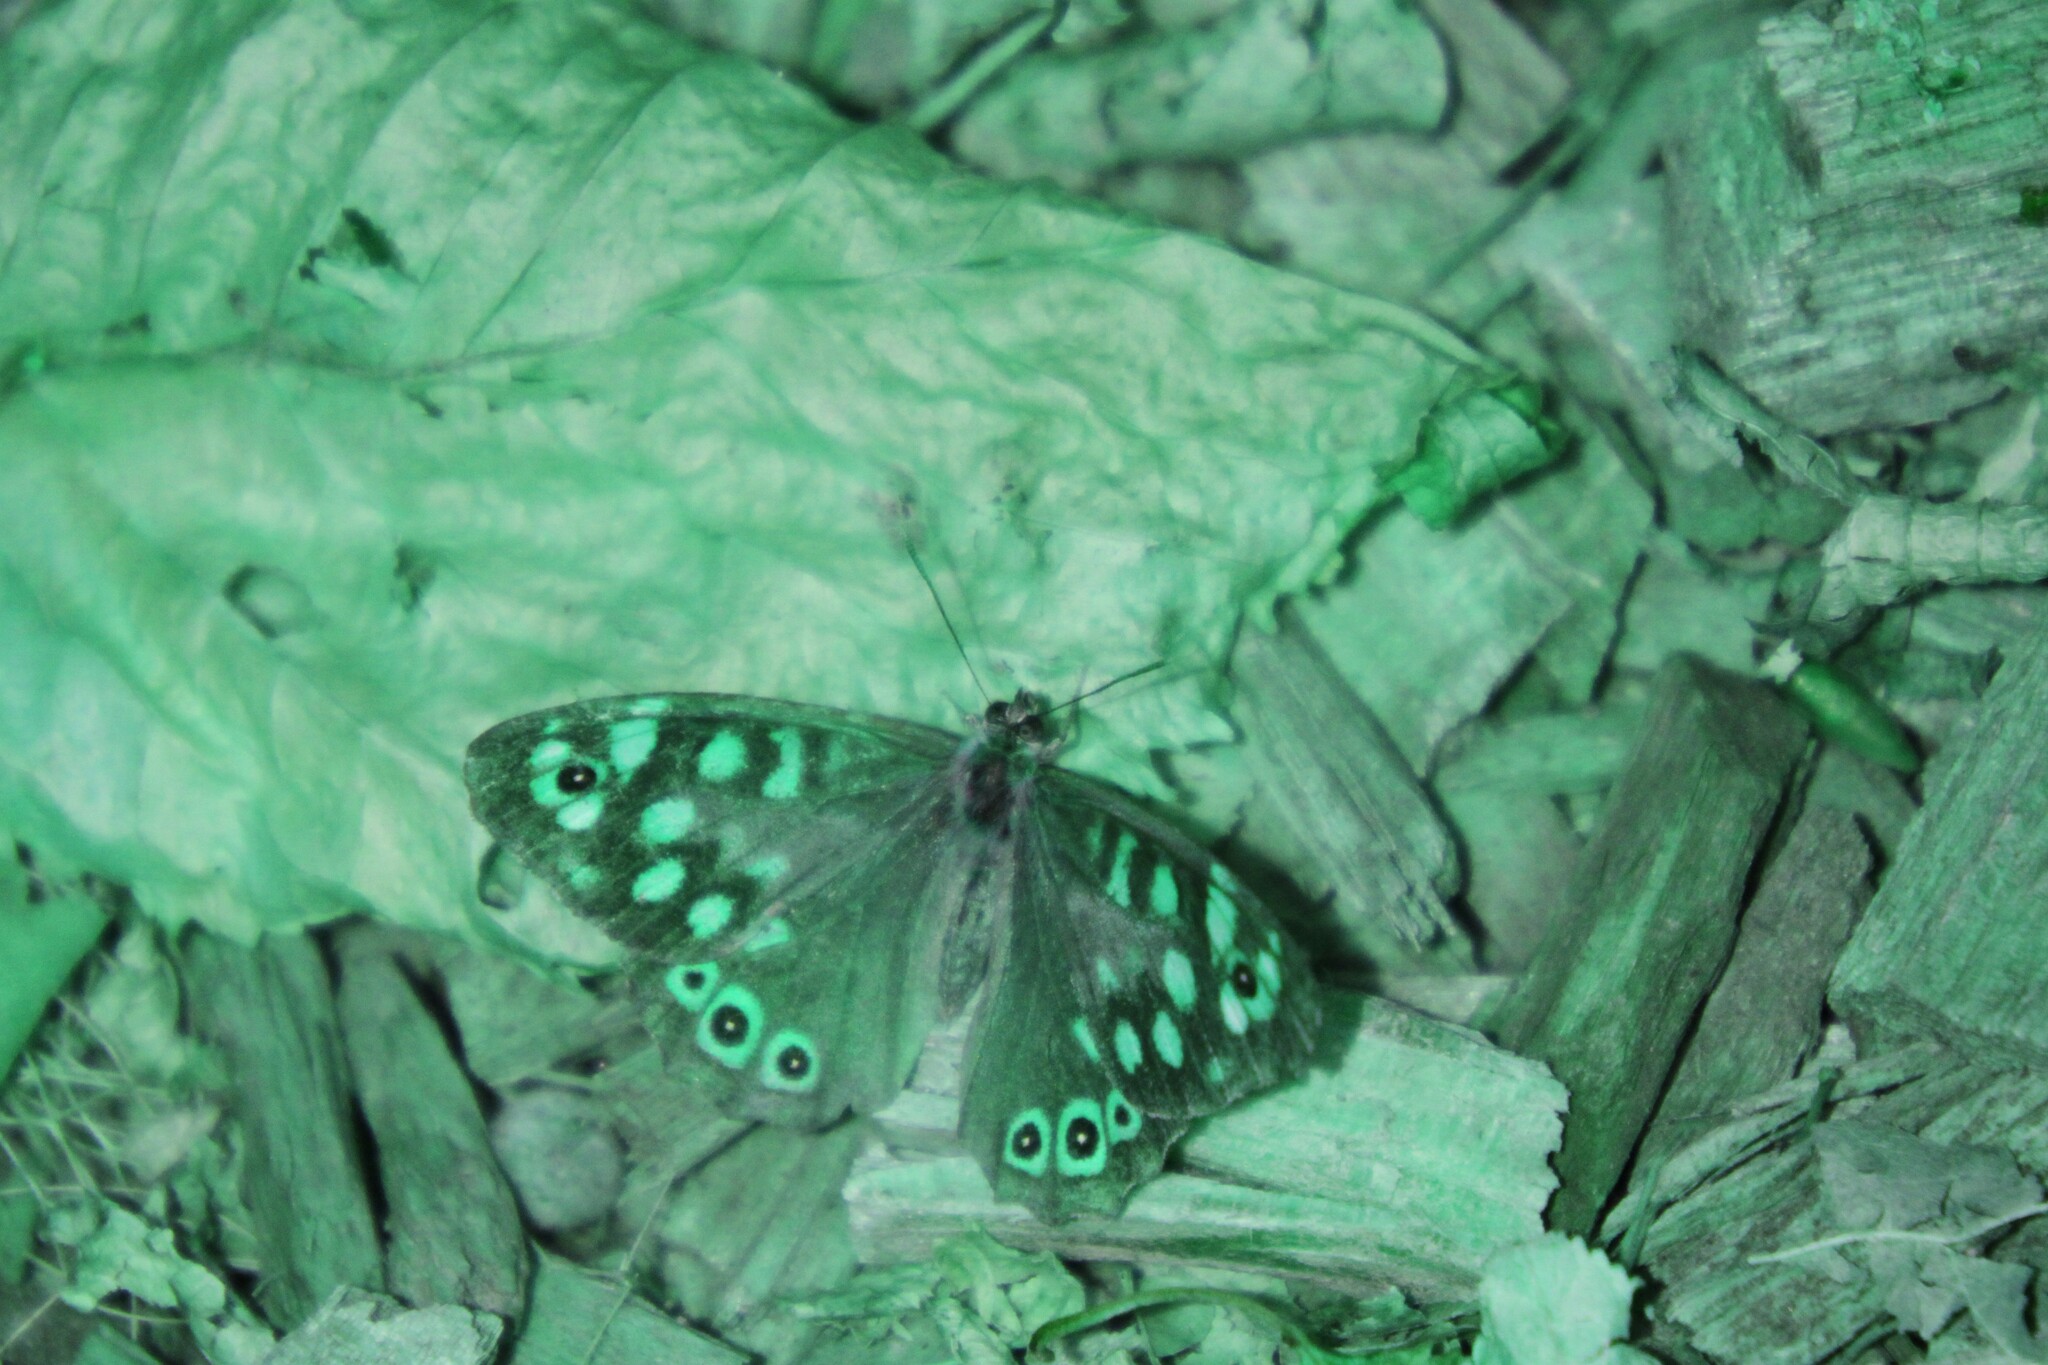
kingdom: Animalia
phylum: Arthropoda
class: Insecta
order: Lepidoptera
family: Nymphalidae
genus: Pararge
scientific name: Pararge aegeria
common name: Speckled wood
